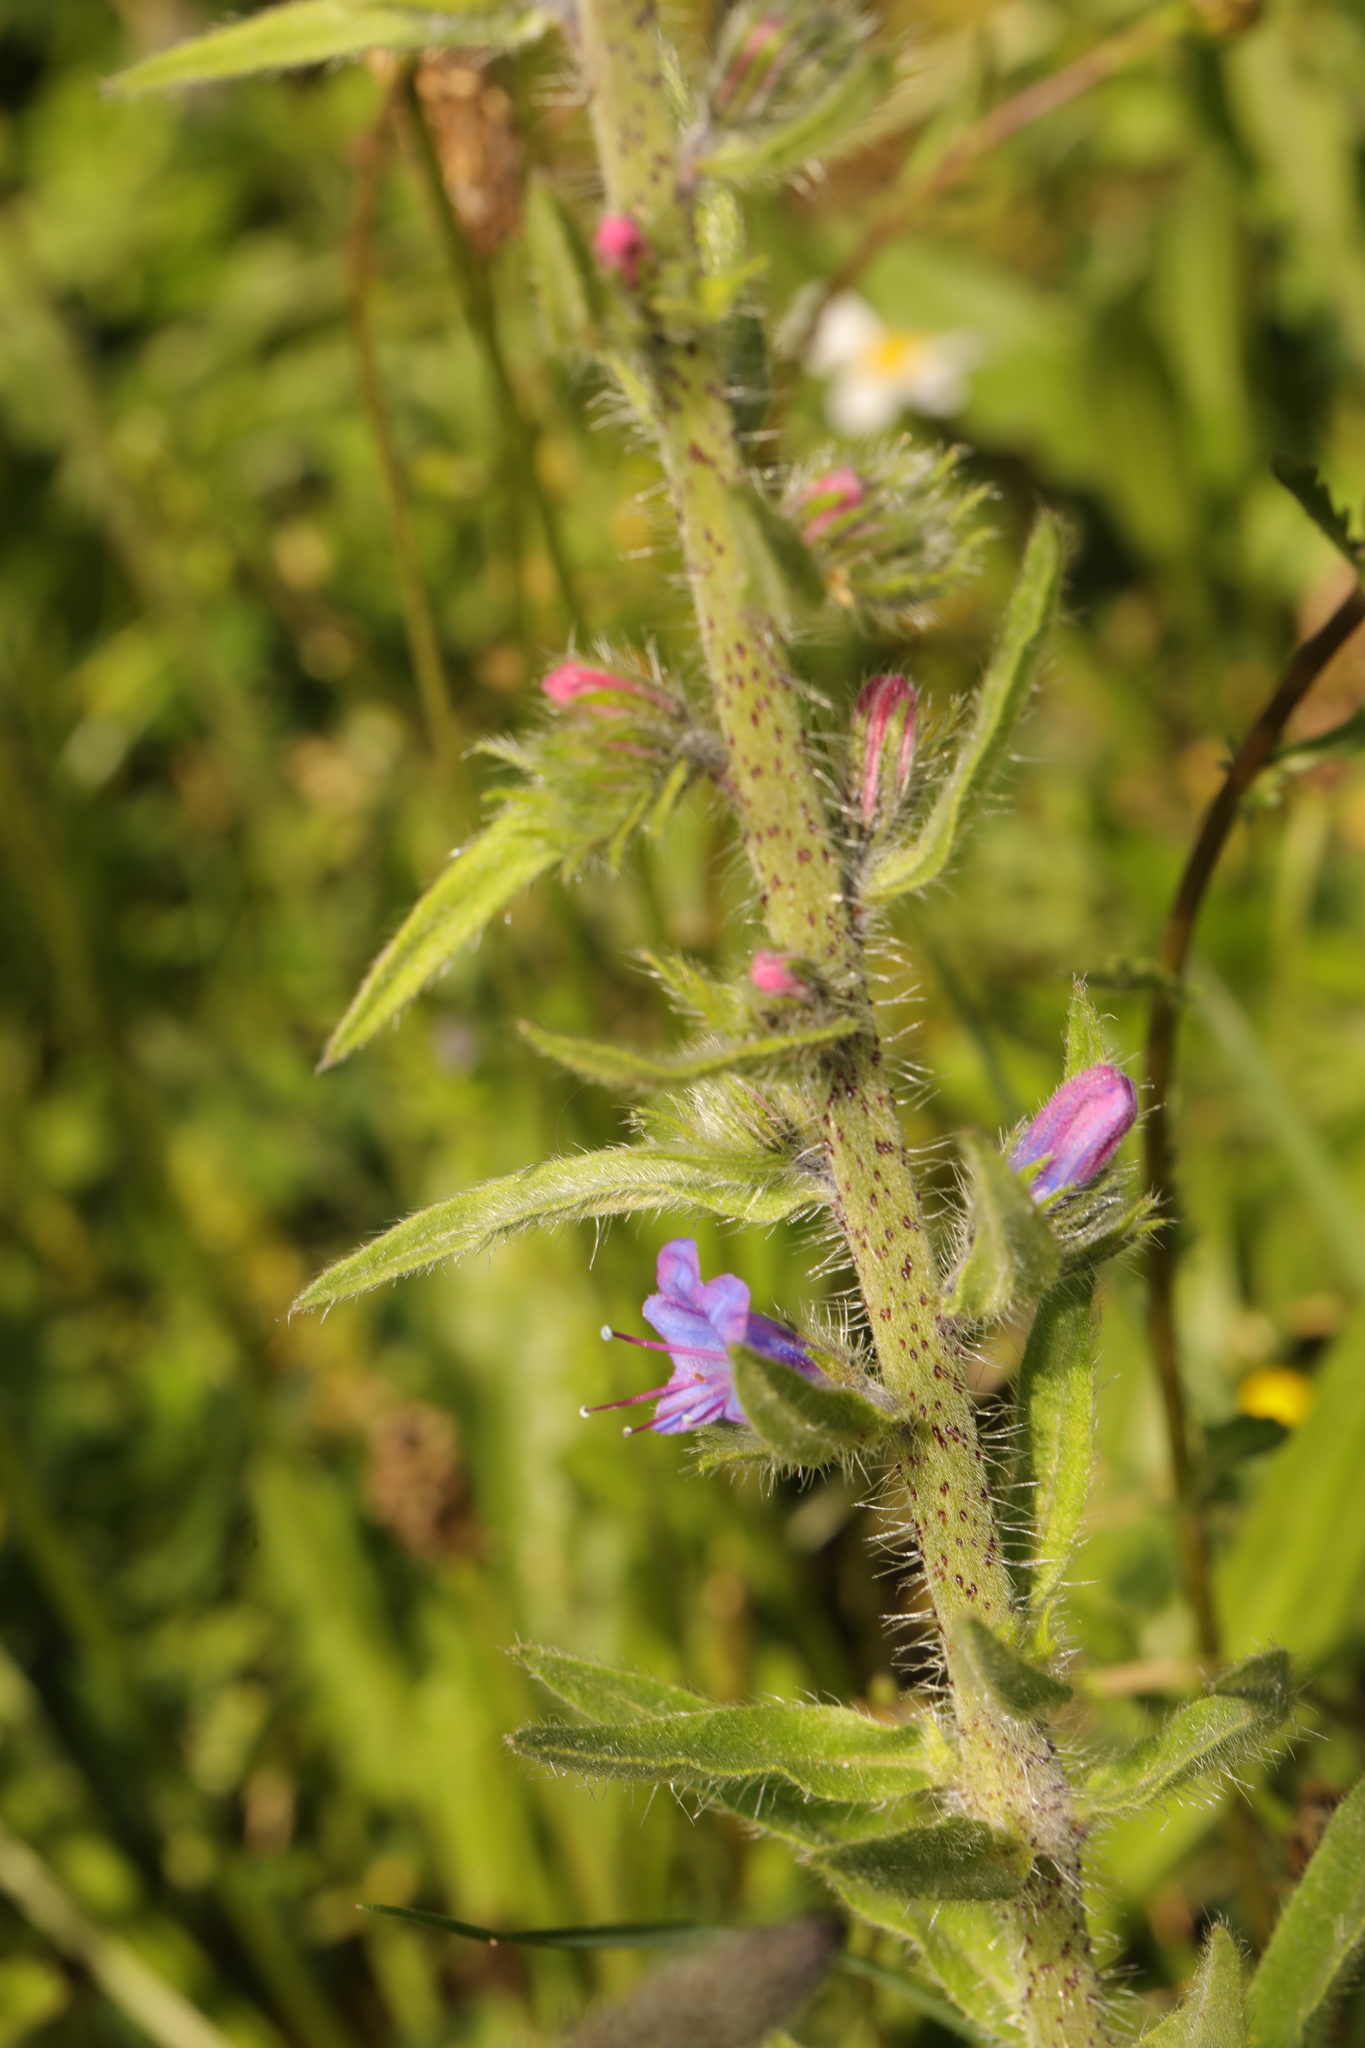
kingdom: Plantae
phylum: Tracheophyta
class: Magnoliopsida
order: Boraginales
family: Boraginaceae
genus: Echium
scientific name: Echium vulgare
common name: Common viper's bugloss
